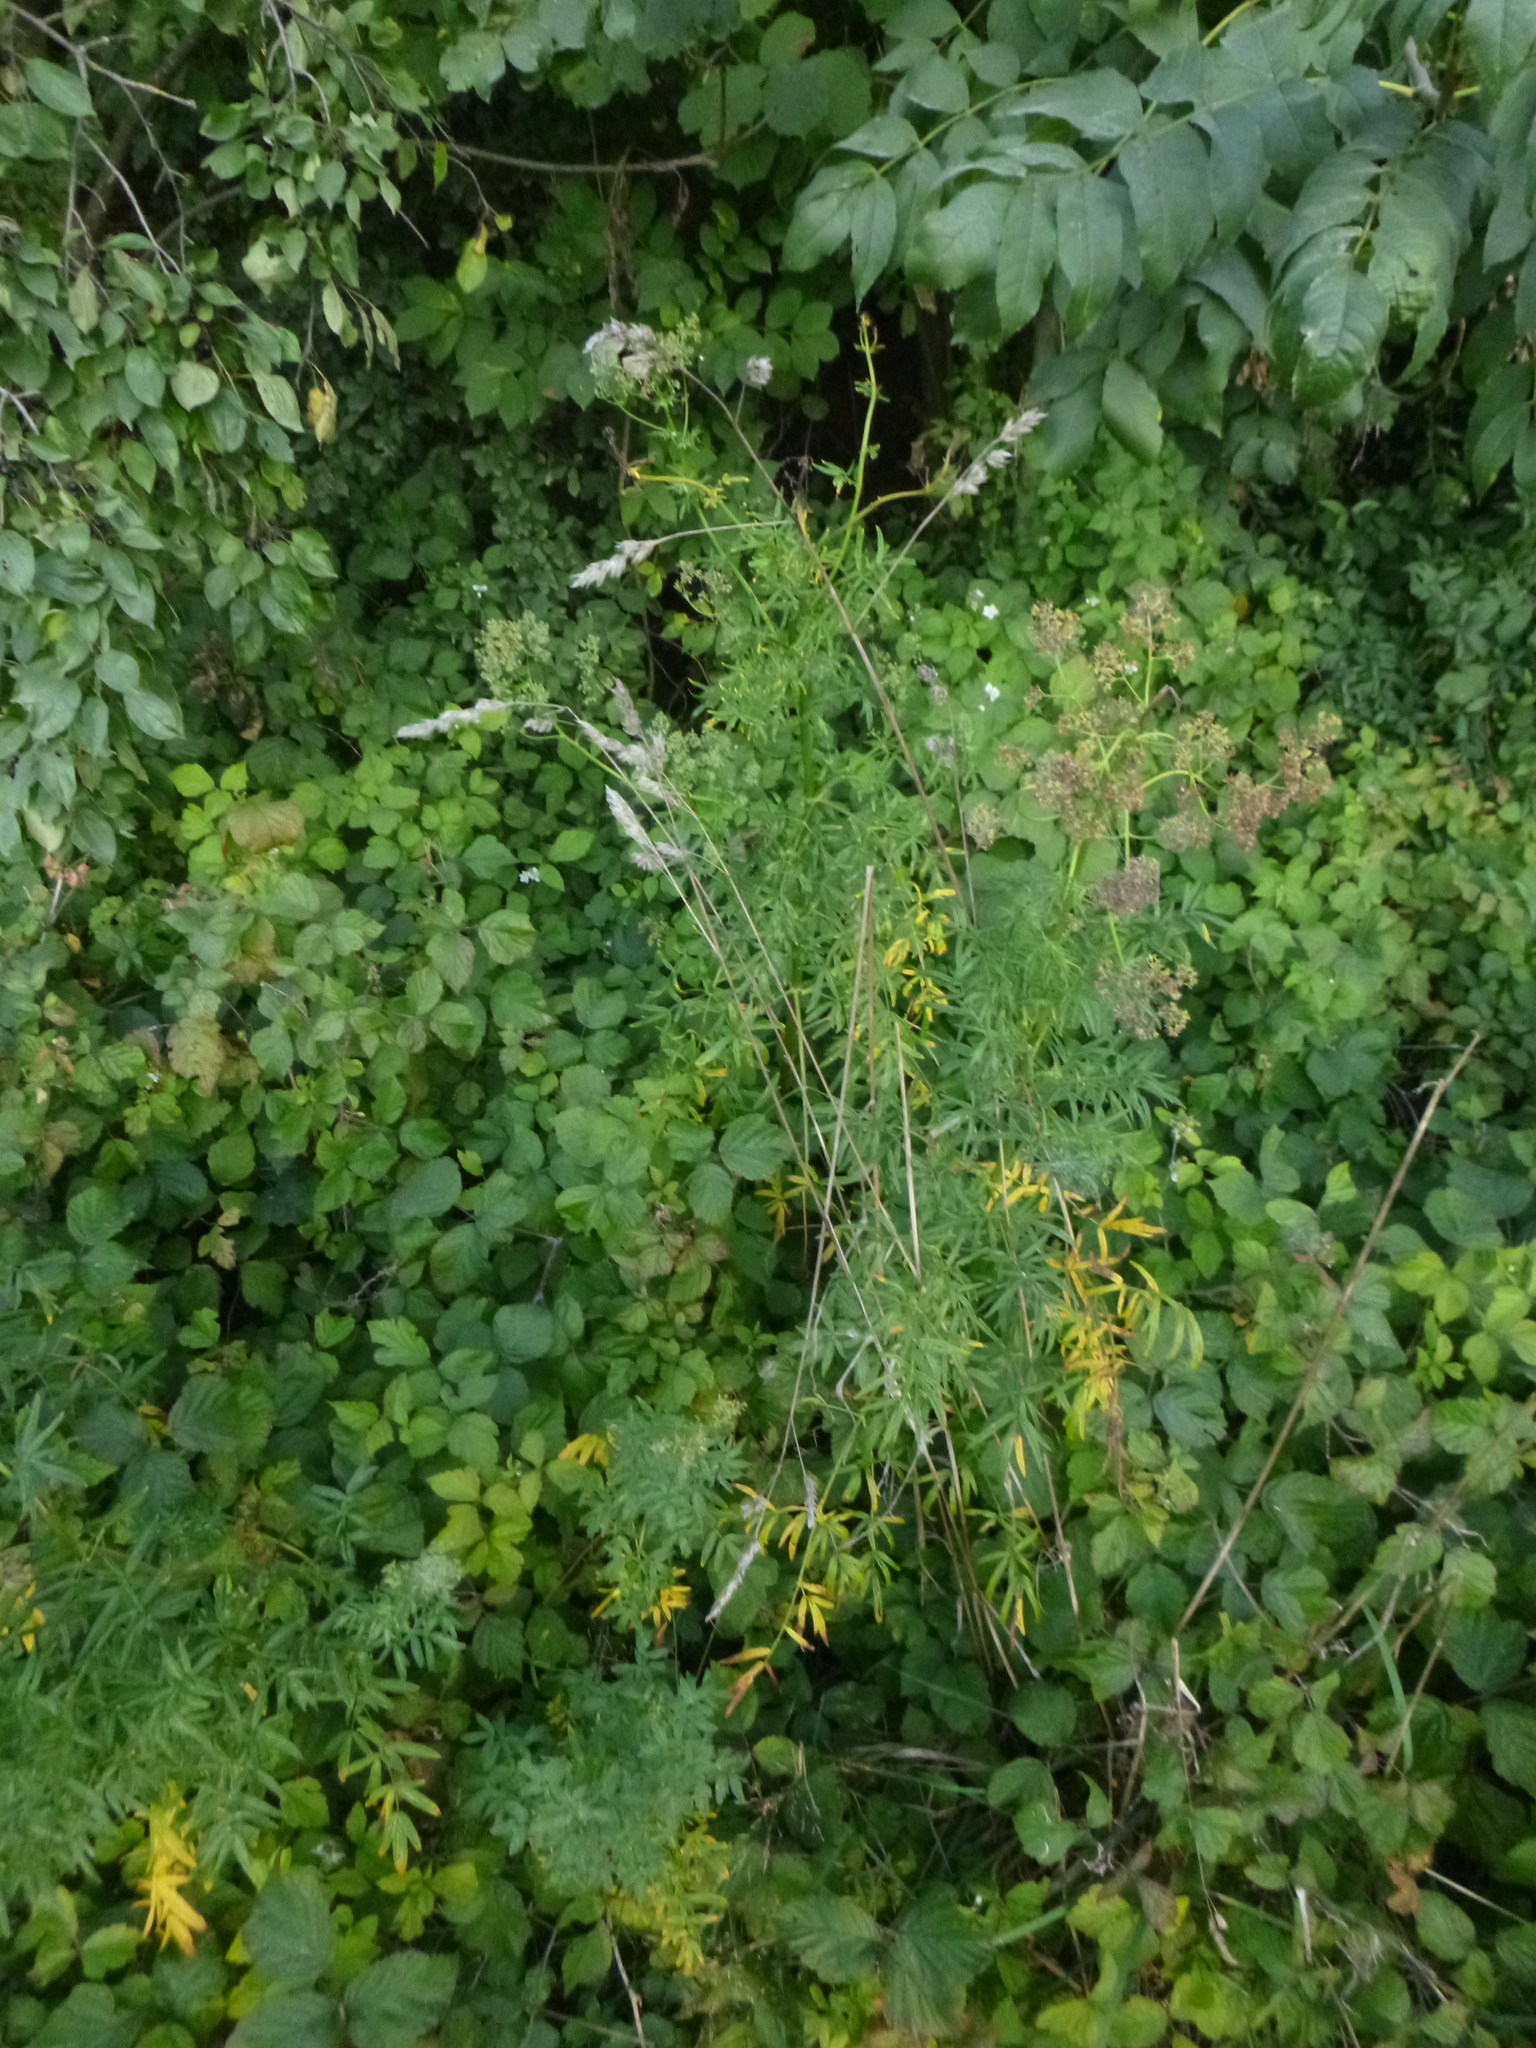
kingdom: Plantae
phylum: Tracheophyta
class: Magnoliopsida
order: Ranunculales
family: Ranunculaceae
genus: Thalictrum
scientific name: Thalictrum lucidum
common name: Shining meadow-rue
